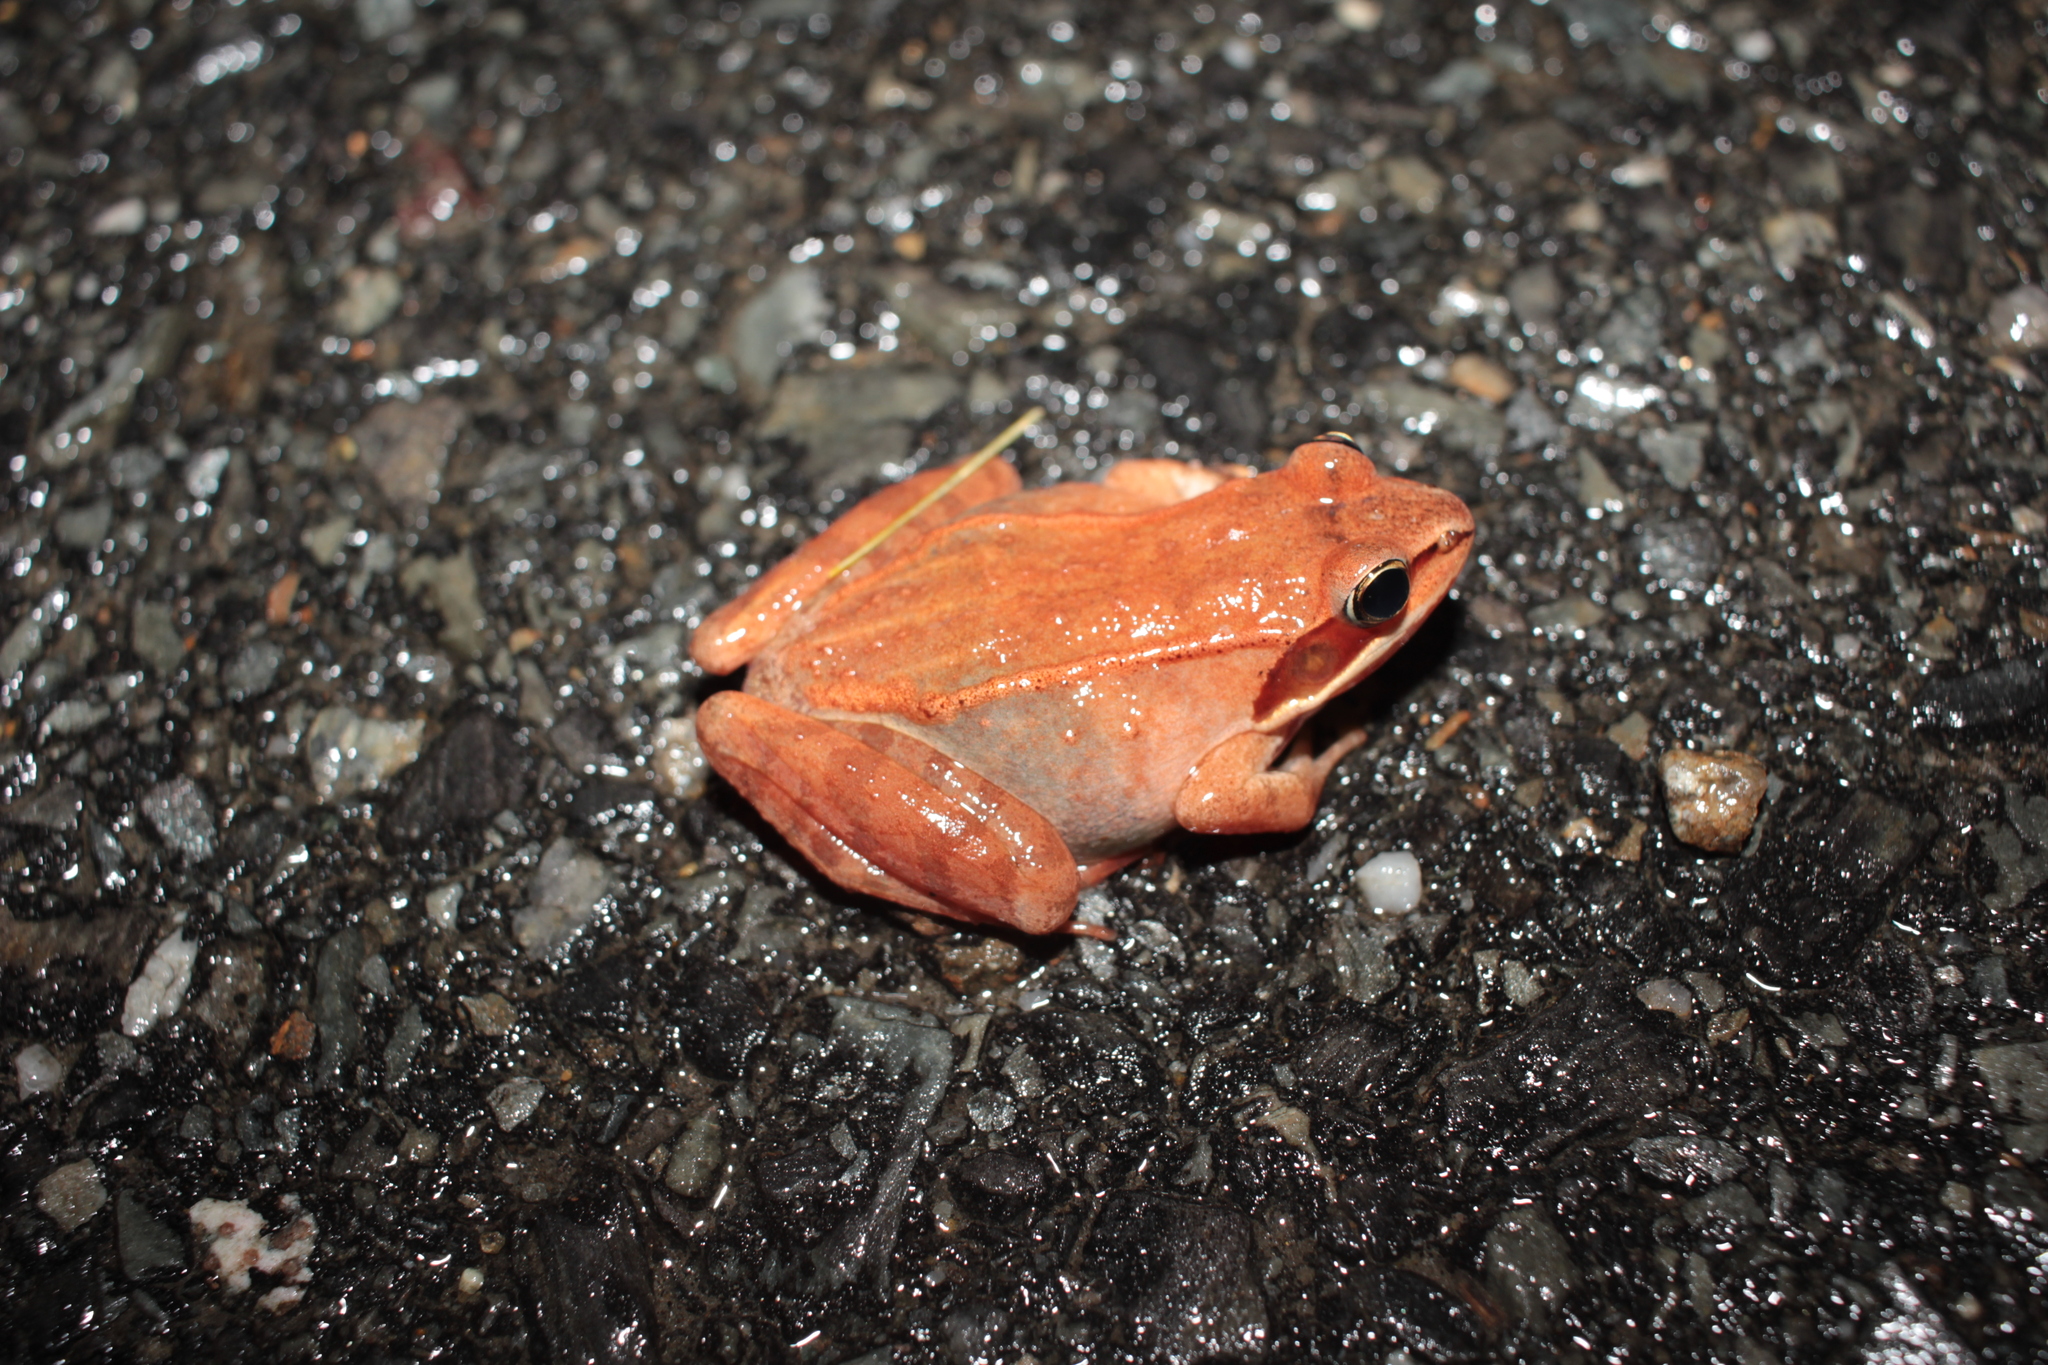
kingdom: Animalia
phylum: Chordata
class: Amphibia
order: Anura
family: Ranidae
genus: Lithobates
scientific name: Lithobates sylvaticus
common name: Wood frog
